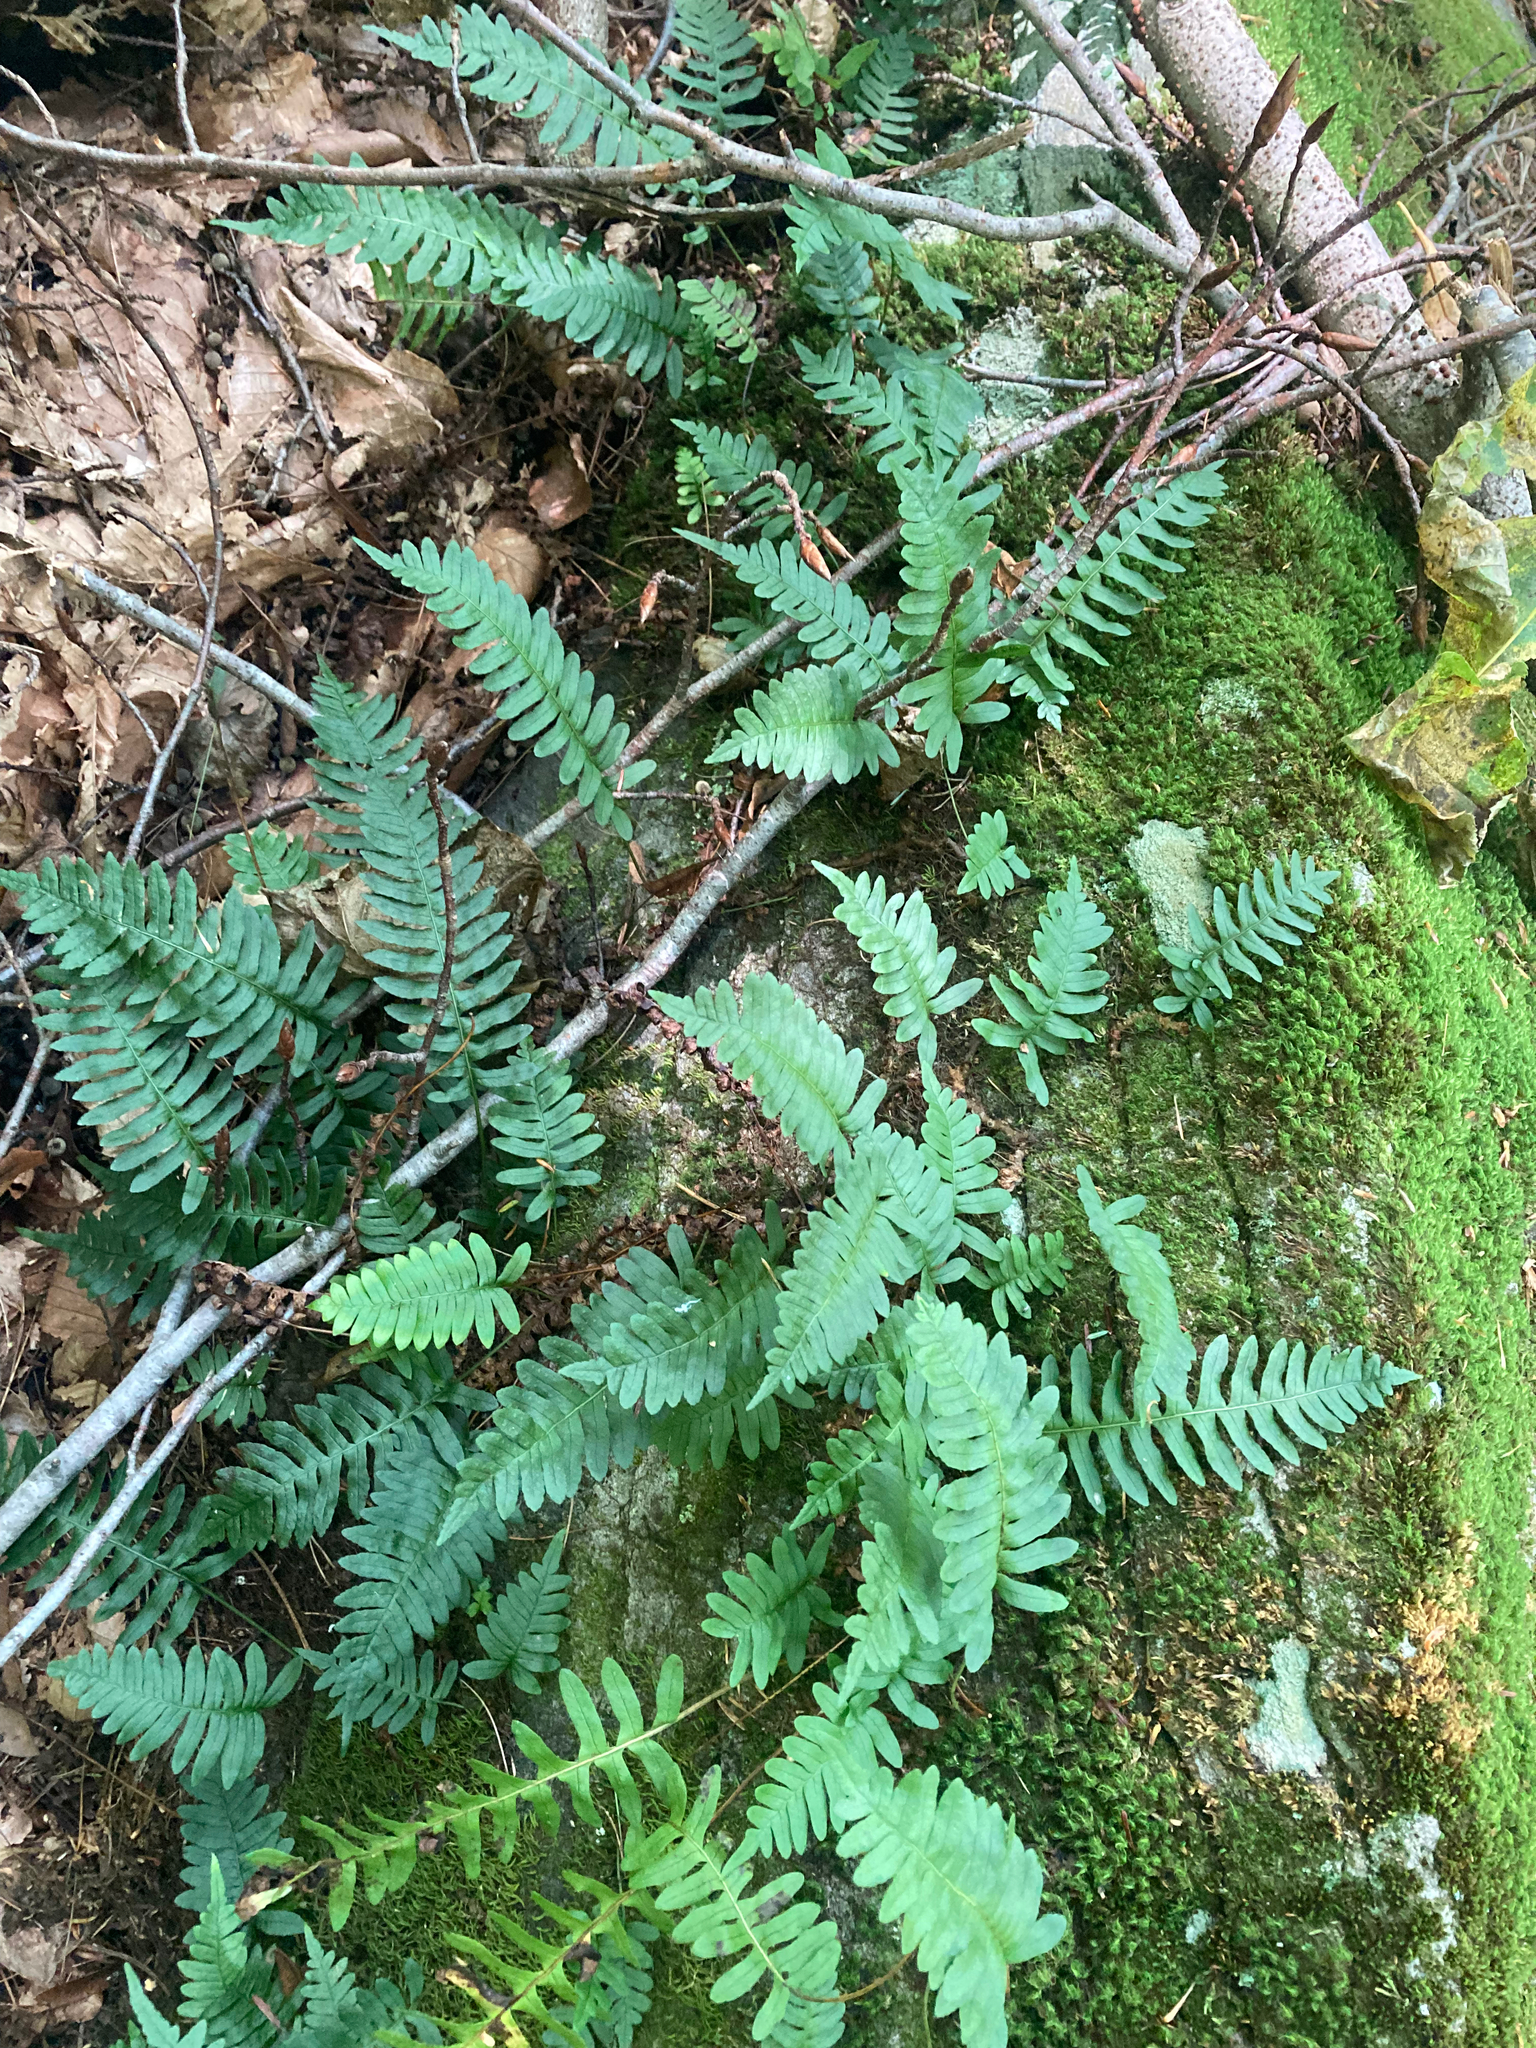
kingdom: Plantae
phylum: Tracheophyta
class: Polypodiopsida
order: Polypodiales
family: Polypodiaceae
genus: Polypodium
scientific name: Polypodium virginianum
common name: American wall fern
